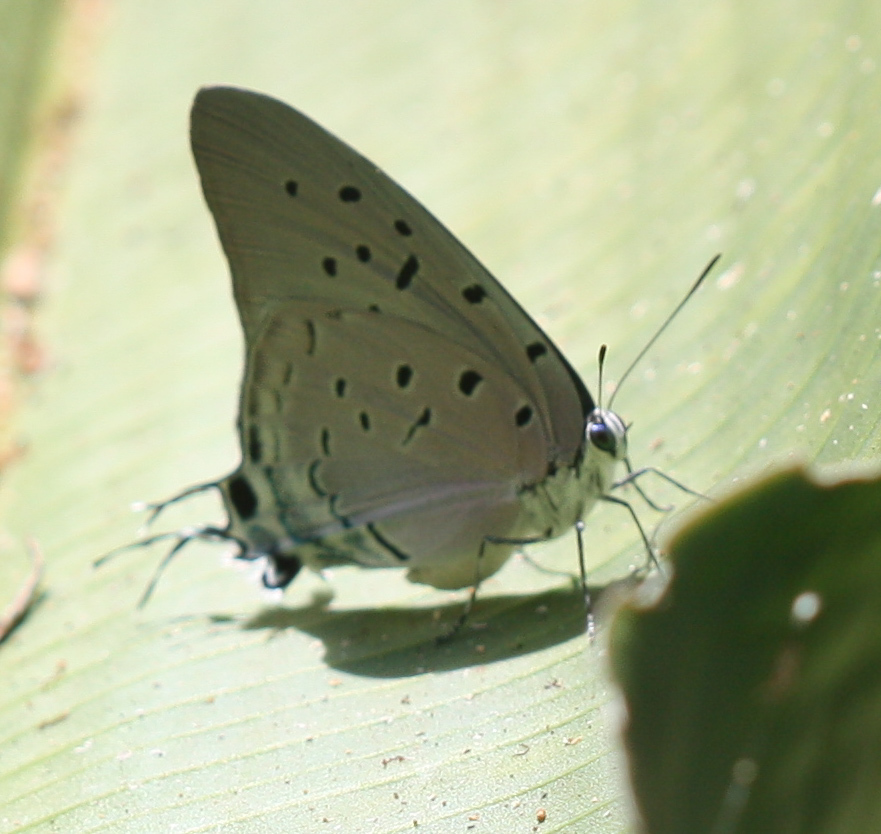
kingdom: Animalia
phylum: Arthropoda
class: Insecta
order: Lepidoptera
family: Lycaenidae
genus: Pseudolycaena
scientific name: Pseudolycaena damo
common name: Sky-blue hairstreak
